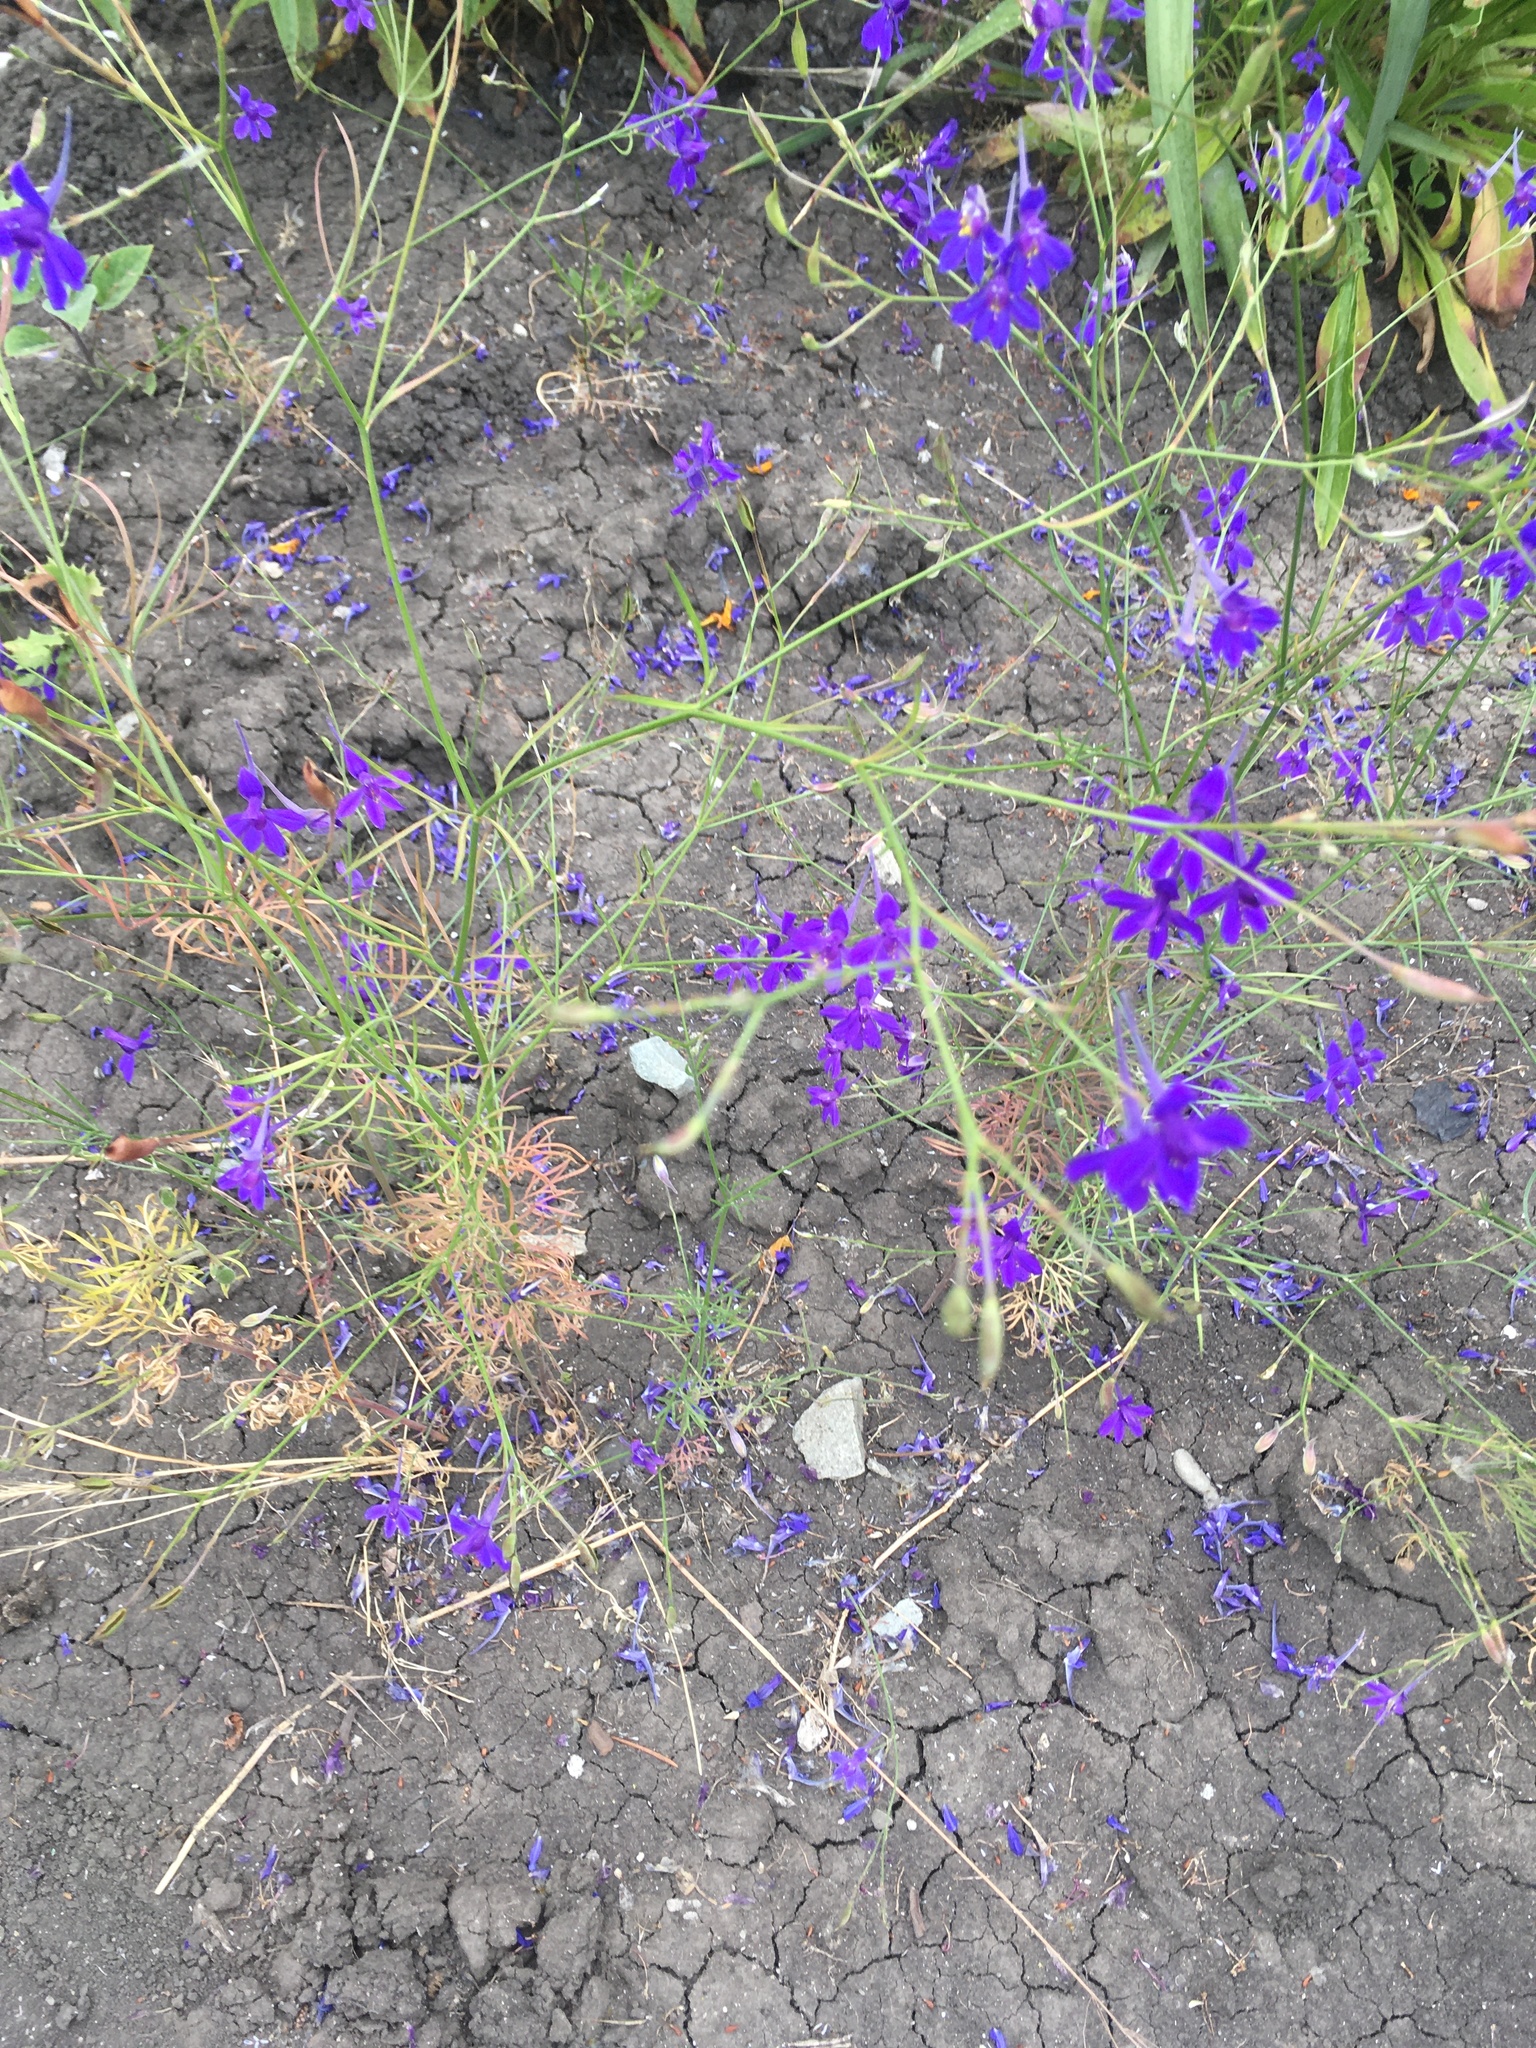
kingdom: Plantae
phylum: Tracheophyta
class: Magnoliopsida
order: Ranunculales
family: Ranunculaceae
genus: Delphinium
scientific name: Delphinium consolida
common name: Branching larkspur
